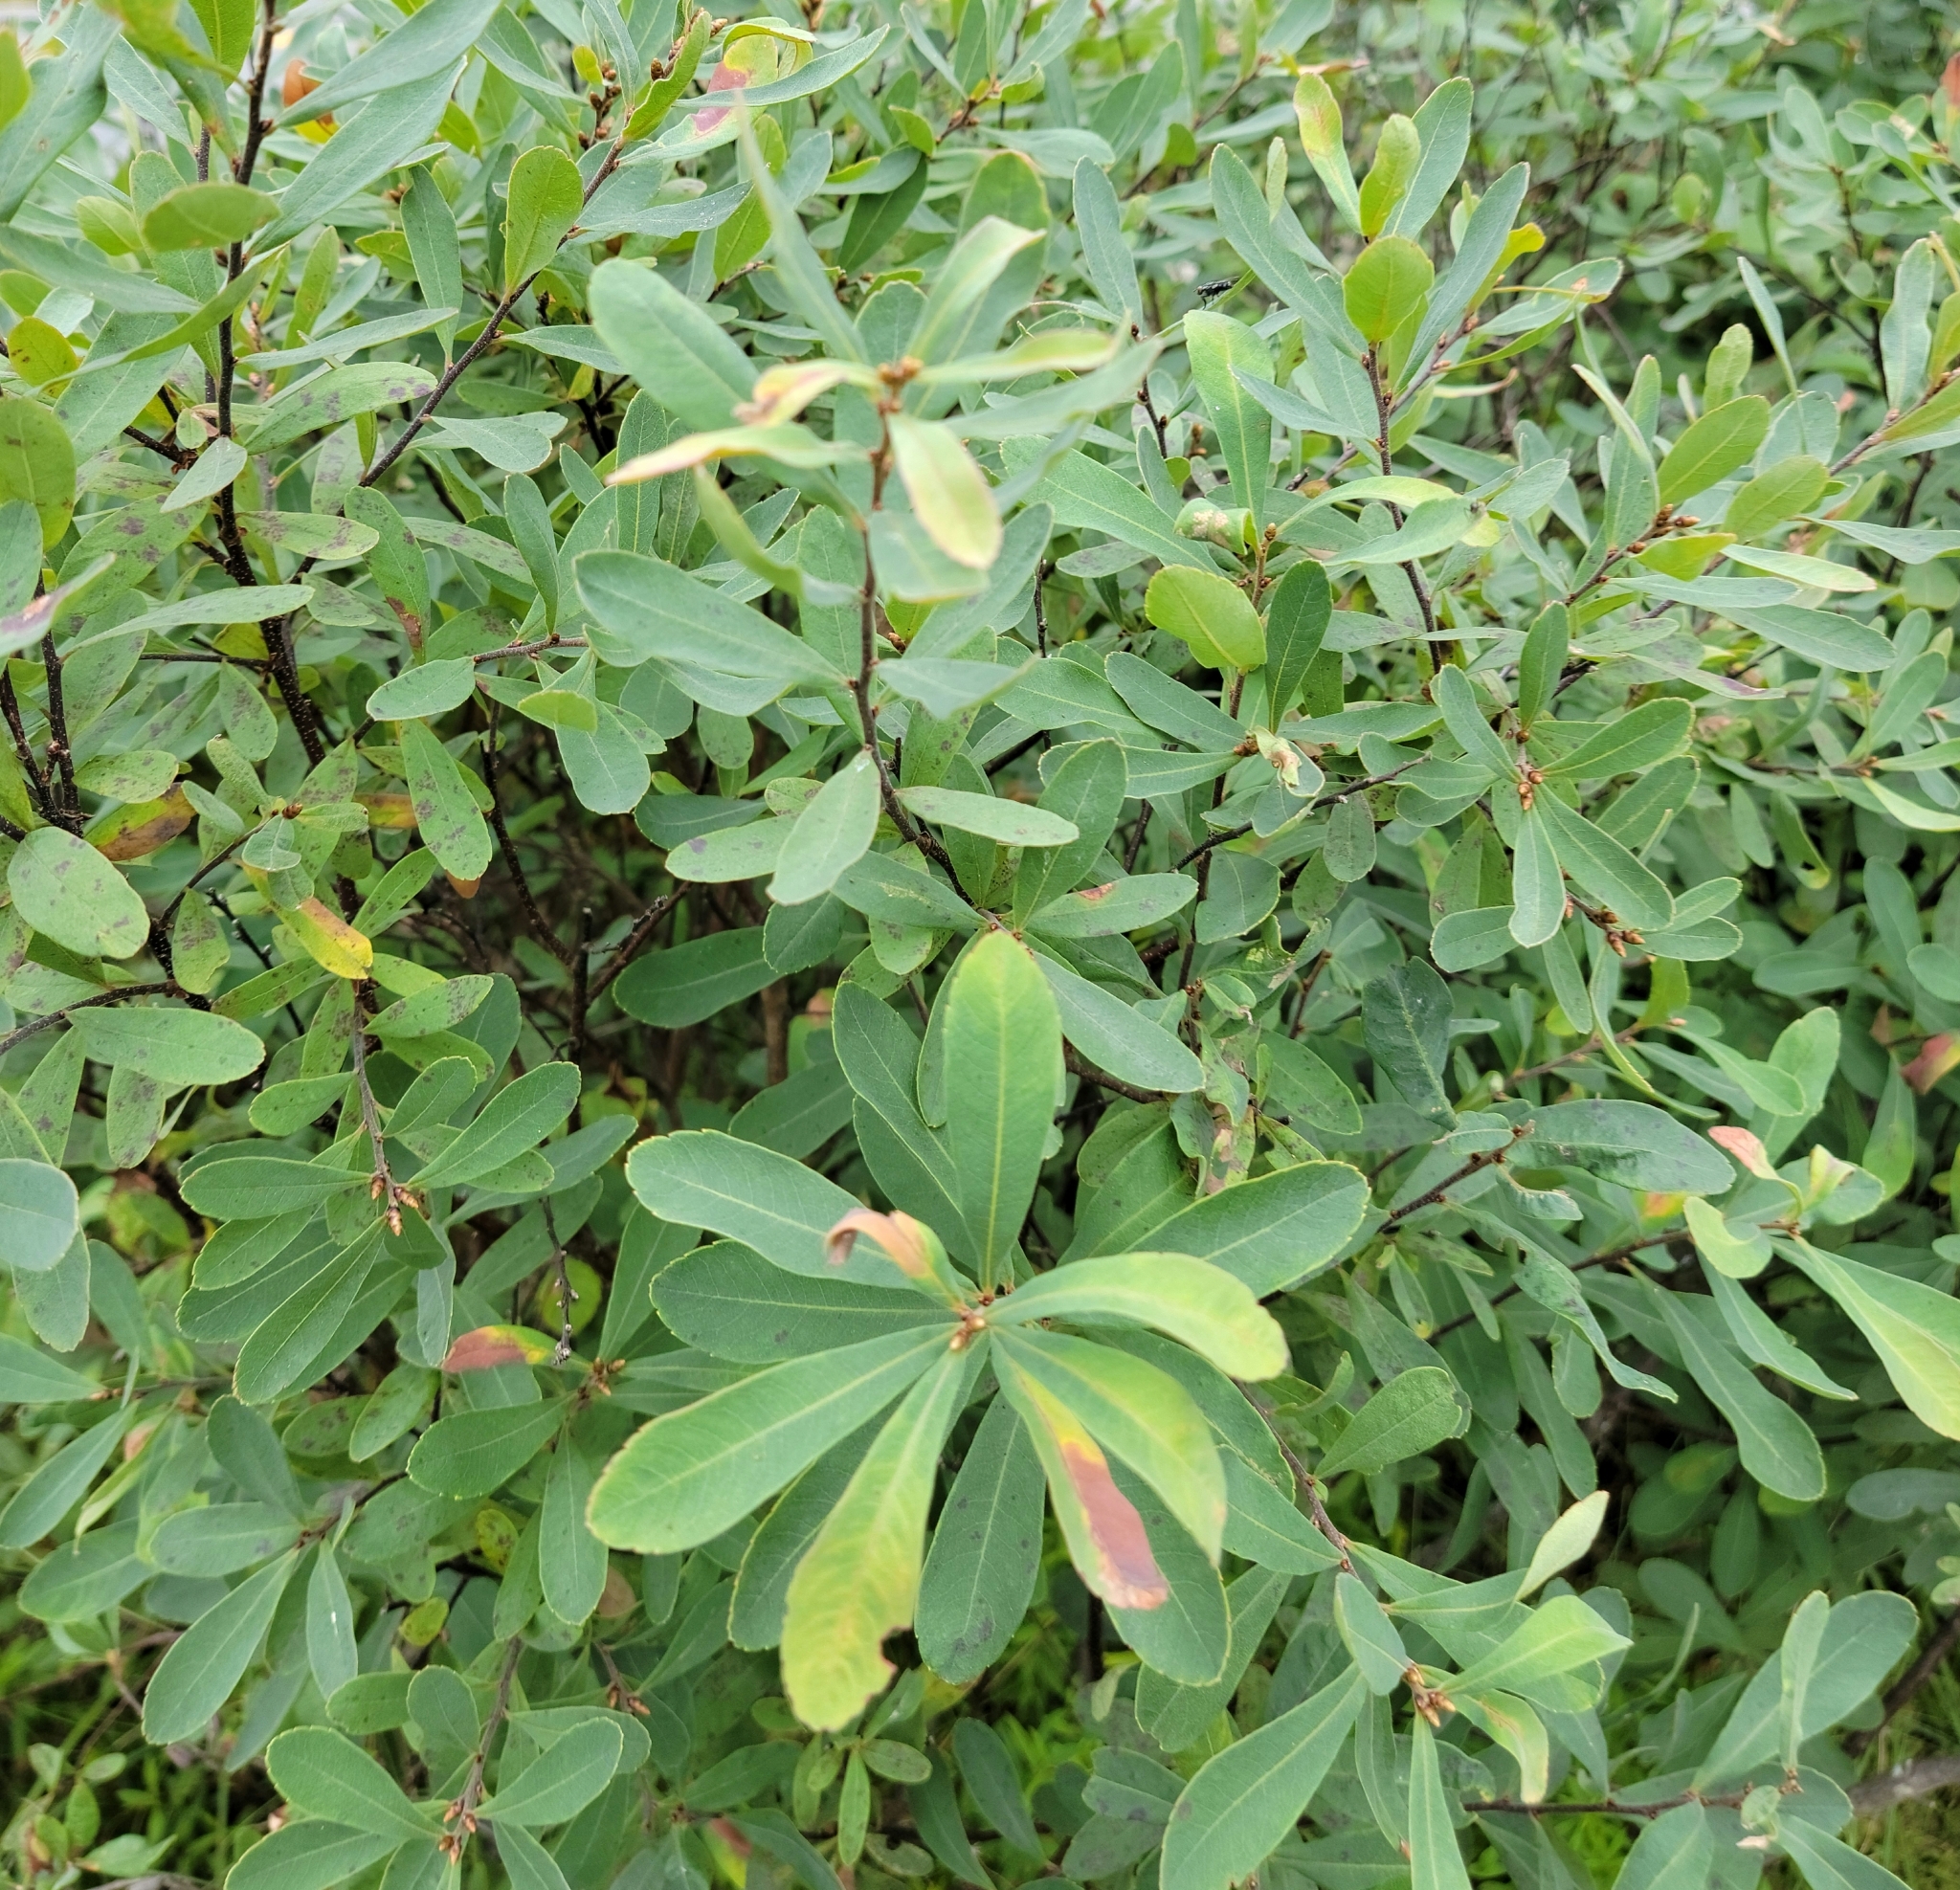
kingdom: Plantae
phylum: Tracheophyta
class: Magnoliopsida
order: Fagales
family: Myricaceae
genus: Myrica
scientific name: Myrica gale
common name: Sweet gale
